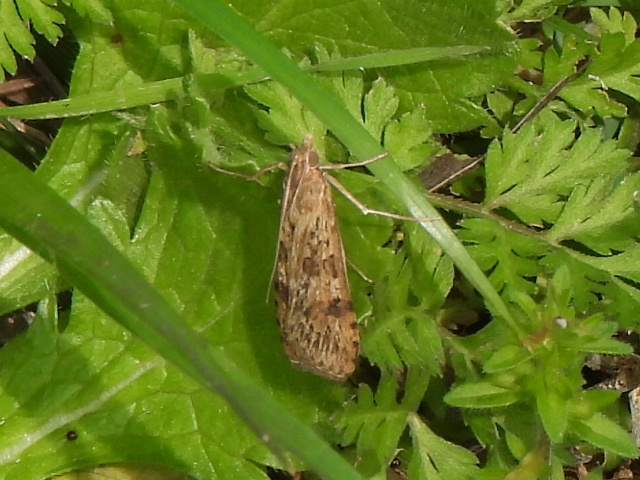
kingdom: Animalia
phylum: Arthropoda
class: Insecta
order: Lepidoptera
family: Crambidae
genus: Nomophila
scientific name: Nomophila nearctica
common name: American rush veneer
